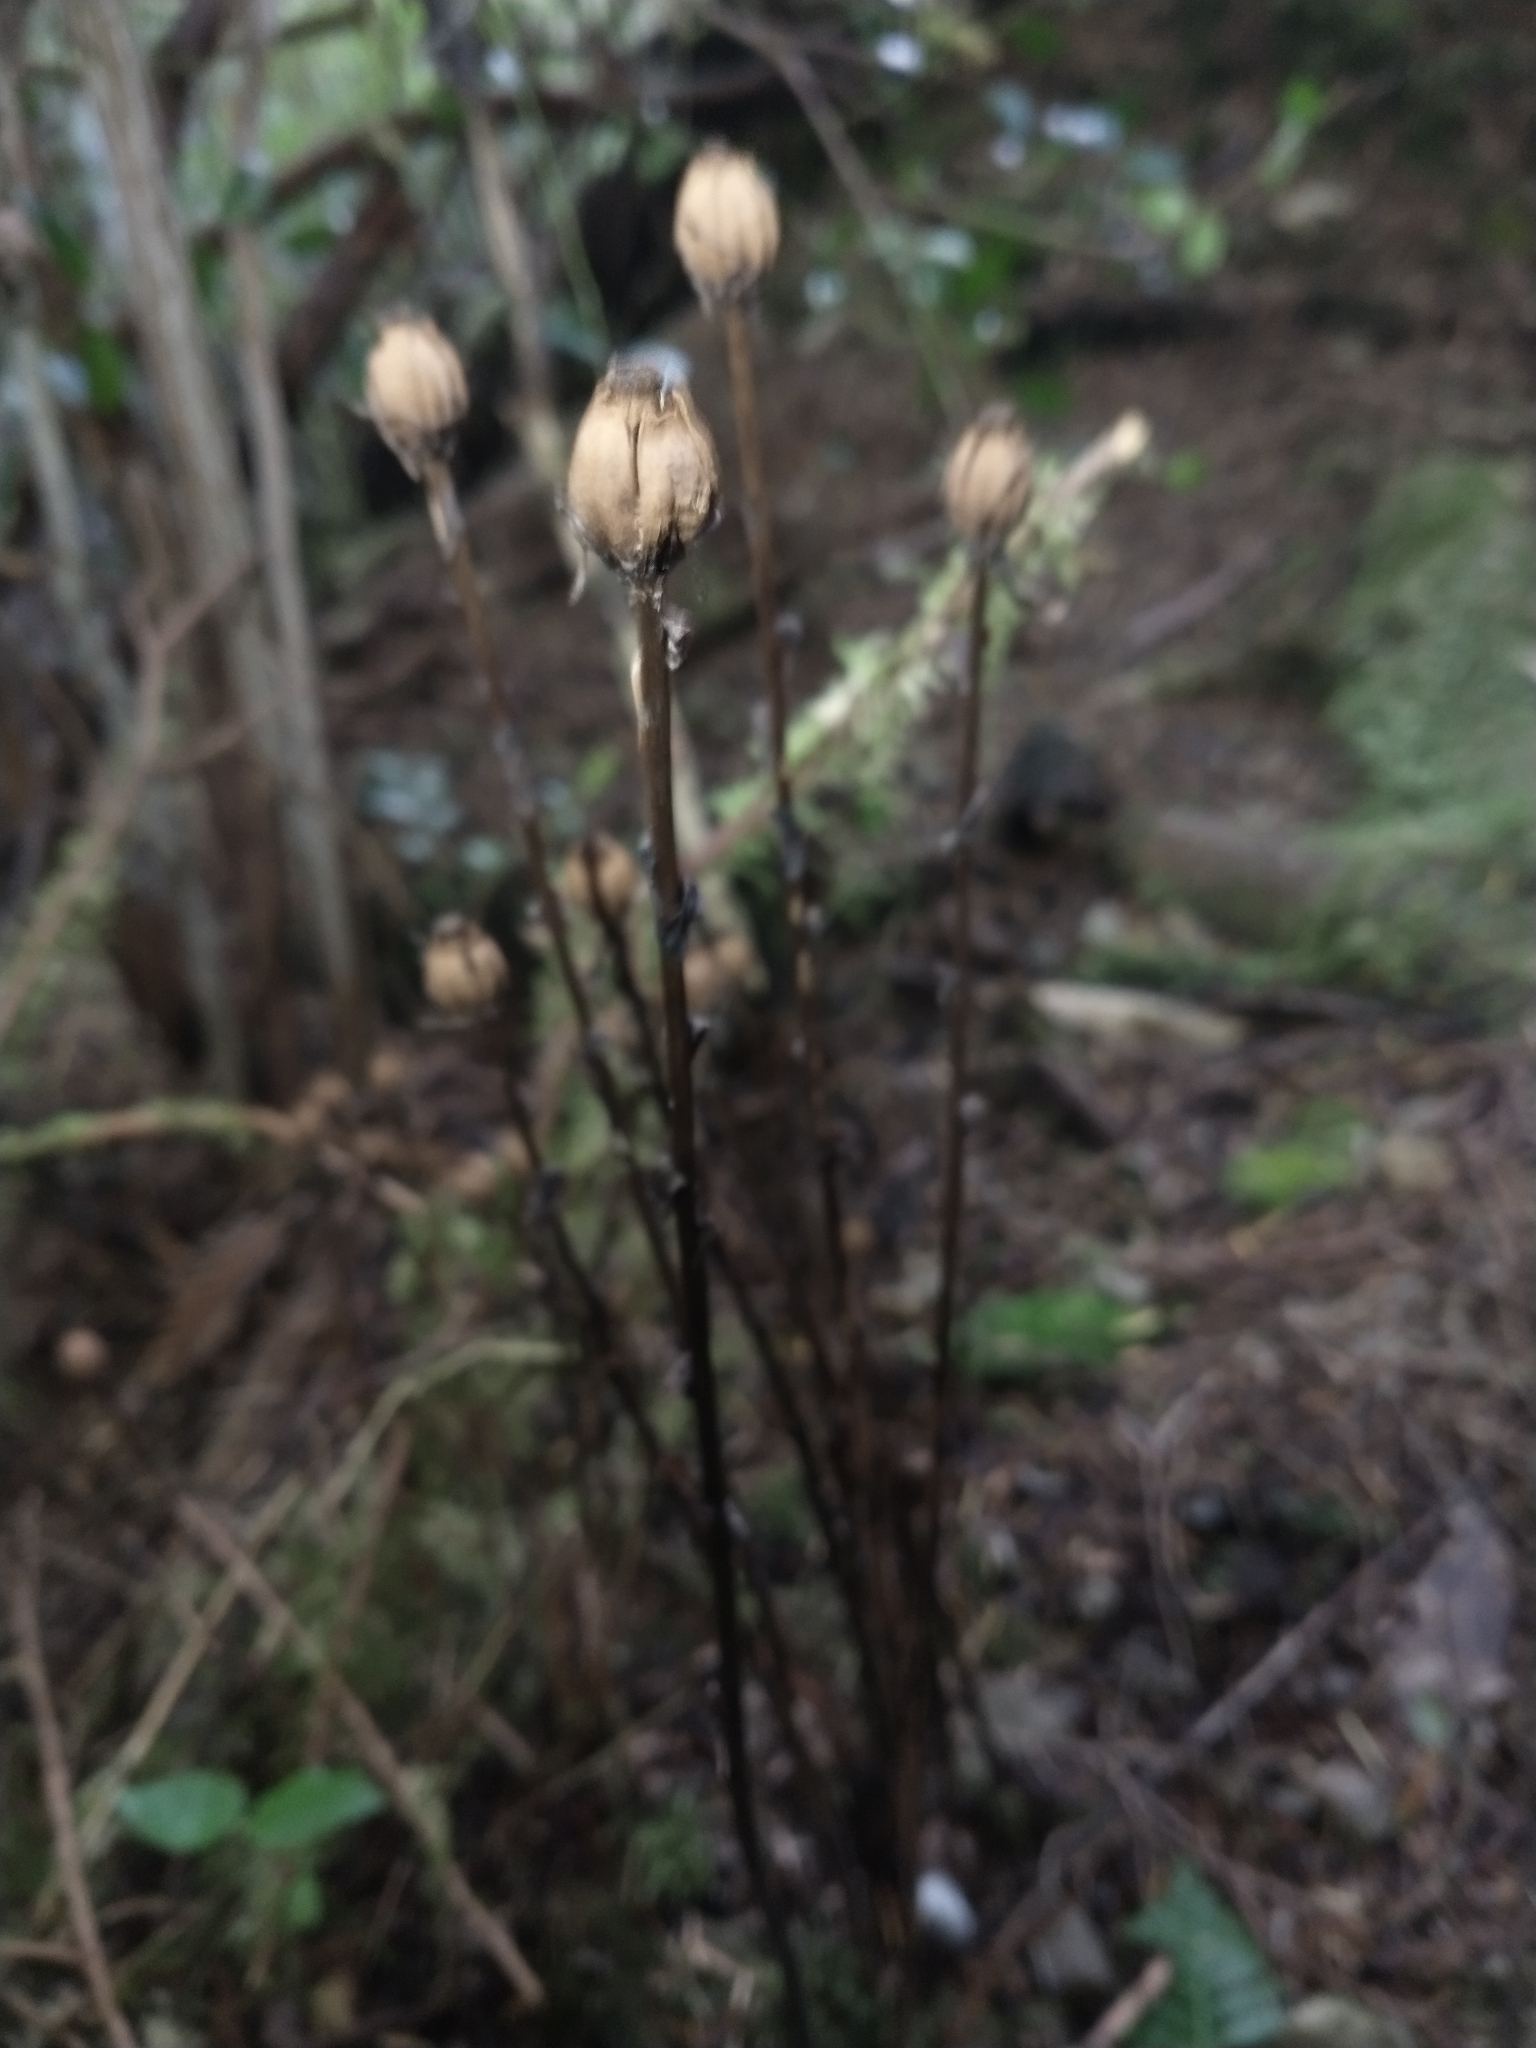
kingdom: Plantae
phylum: Tracheophyta
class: Magnoliopsida
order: Ericales
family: Ericaceae
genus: Monotropa
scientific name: Monotropa uniflora
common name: Convulsion root
